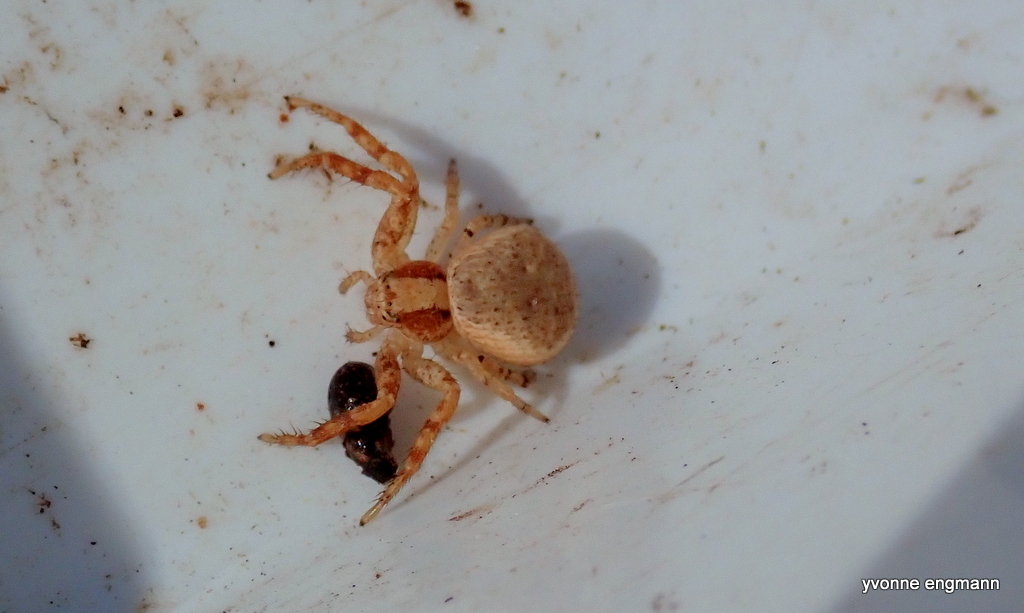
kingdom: Animalia
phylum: Arthropoda
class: Arachnida
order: Araneae
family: Thomisidae
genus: Xysticus
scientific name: Xysticus lanio
